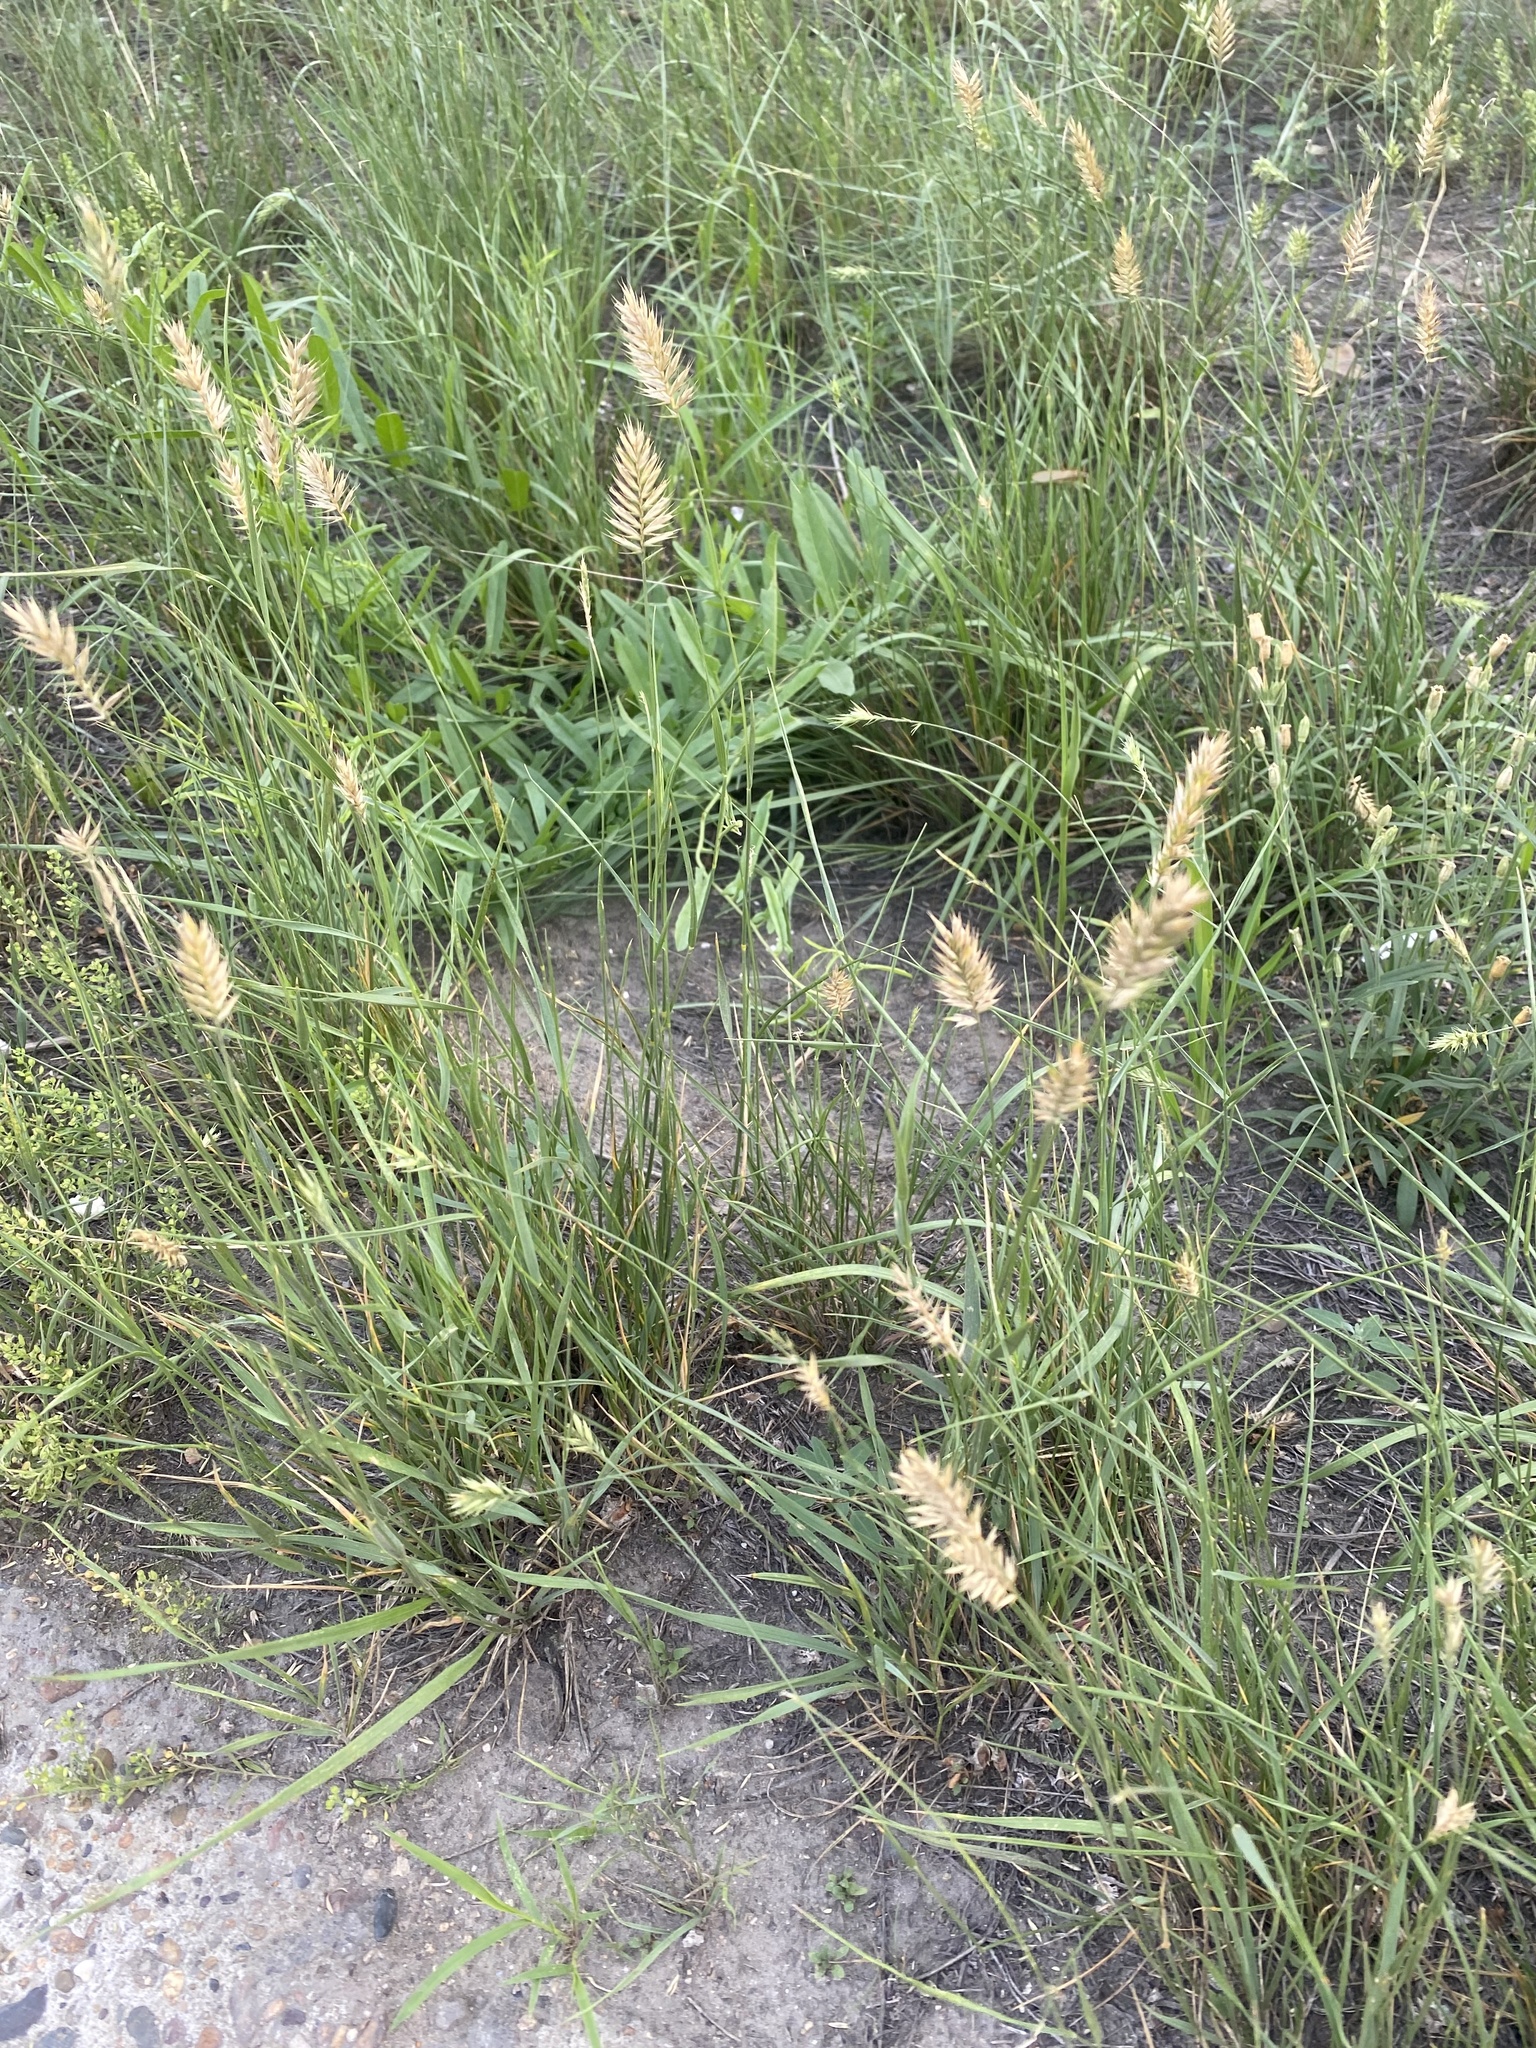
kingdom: Plantae
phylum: Tracheophyta
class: Liliopsida
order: Poales
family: Poaceae
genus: Agropyron
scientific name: Agropyron cristatum
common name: Crested wheatgrass
